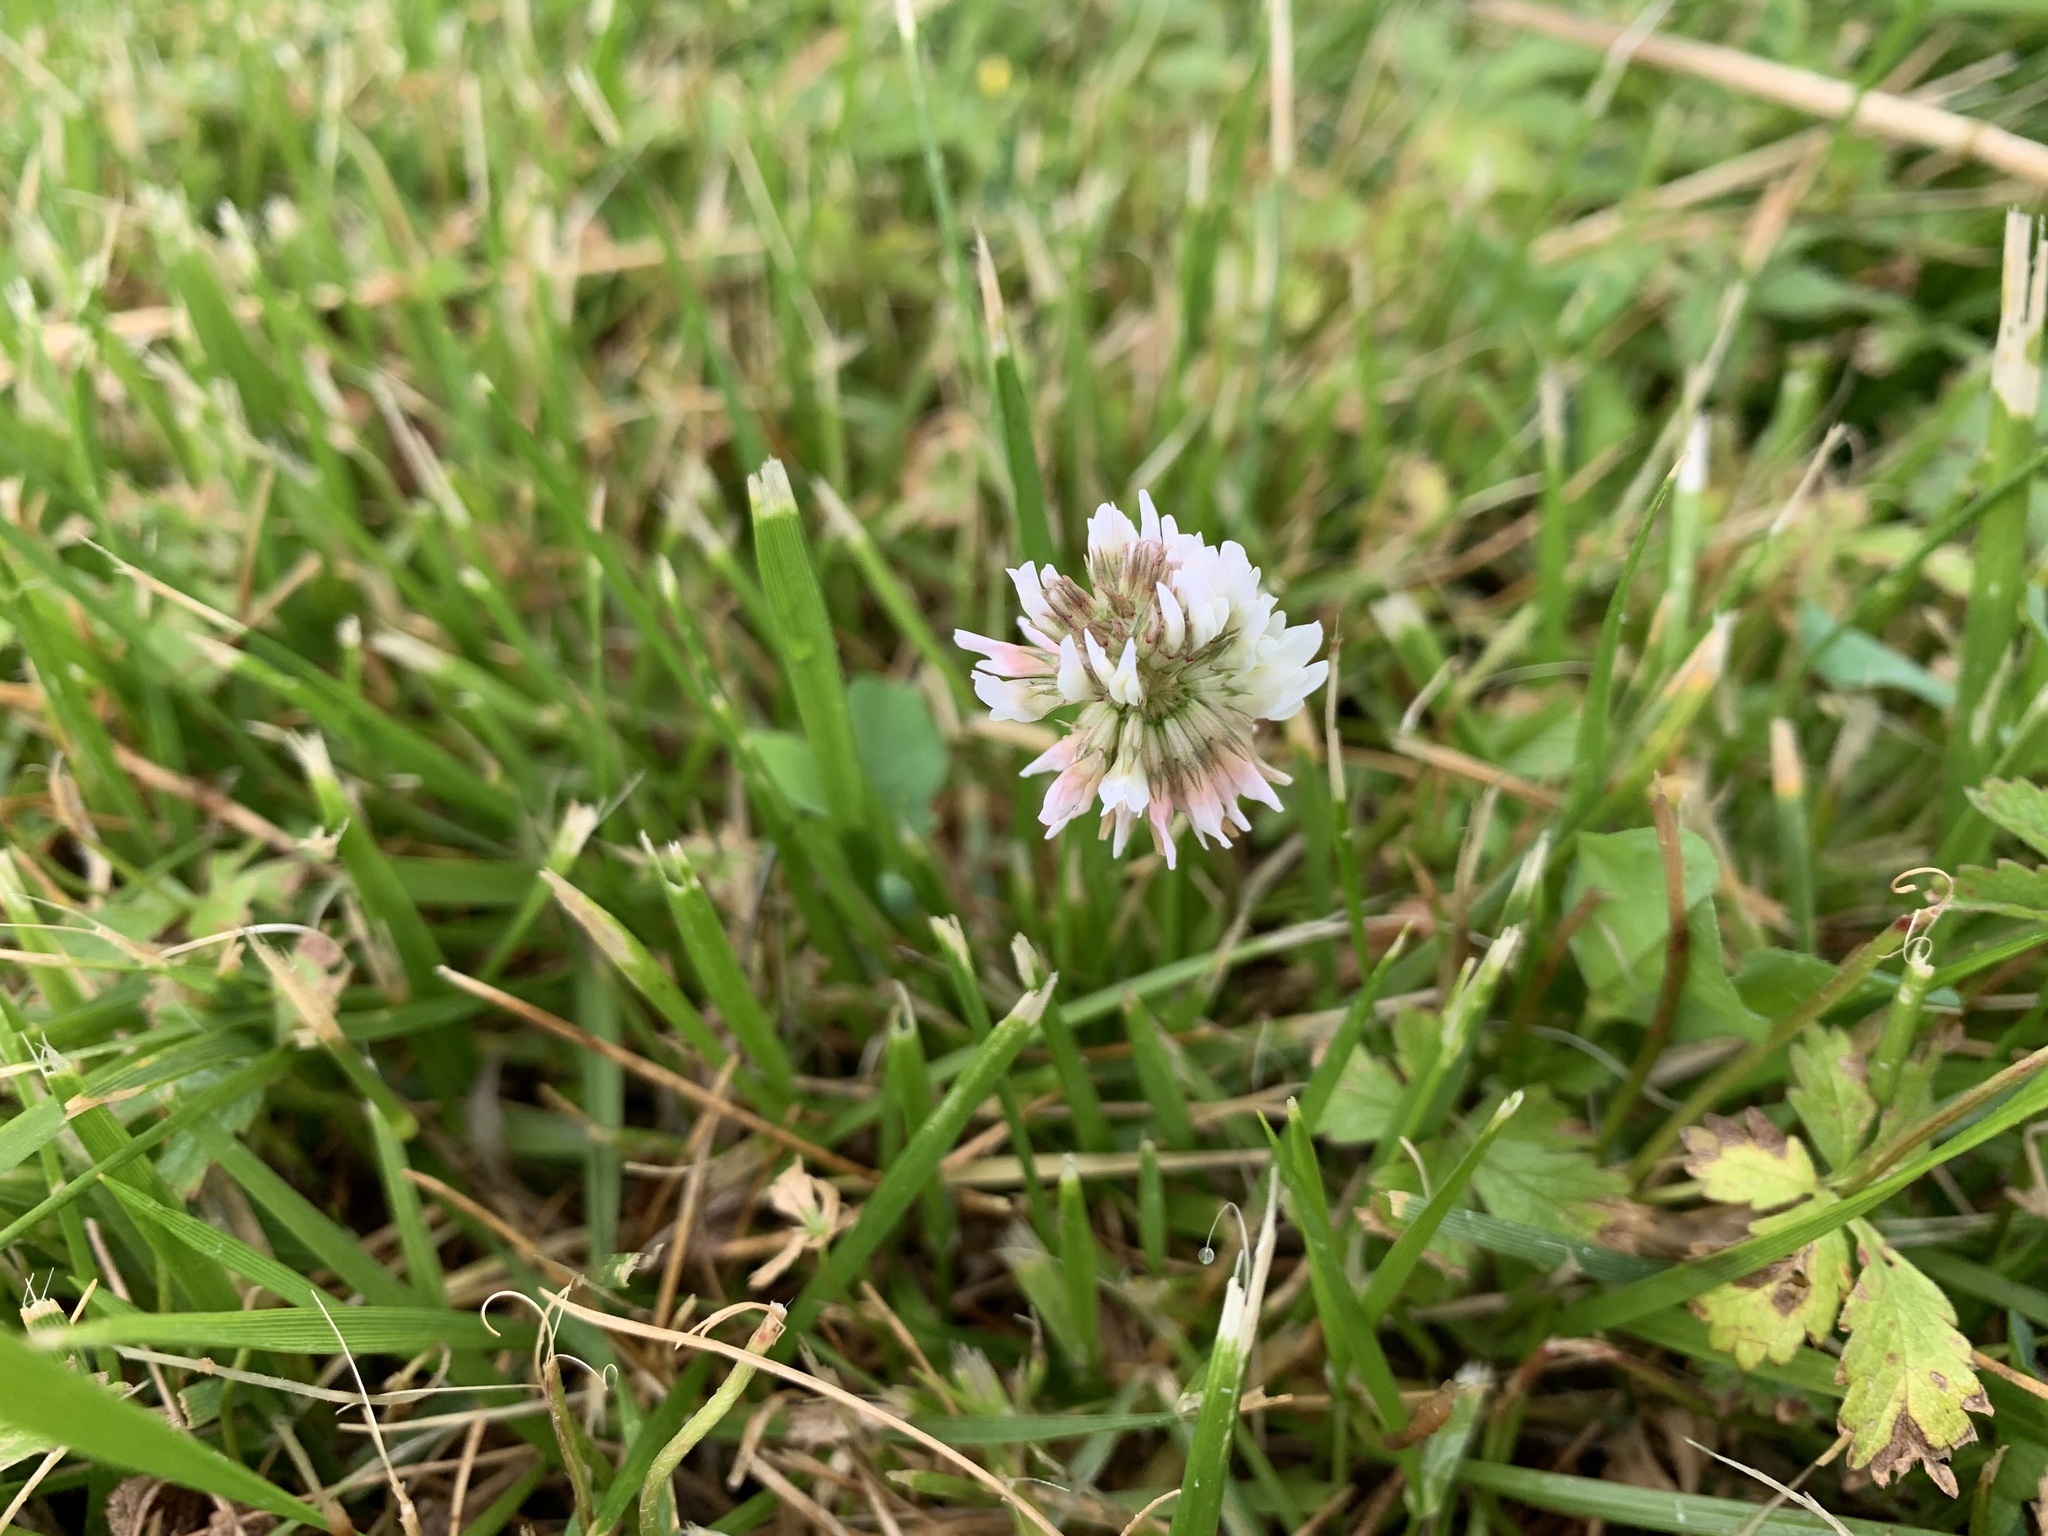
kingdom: Plantae
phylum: Tracheophyta
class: Magnoliopsida
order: Fabales
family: Fabaceae
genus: Trifolium
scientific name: Trifolium repens
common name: White clover
